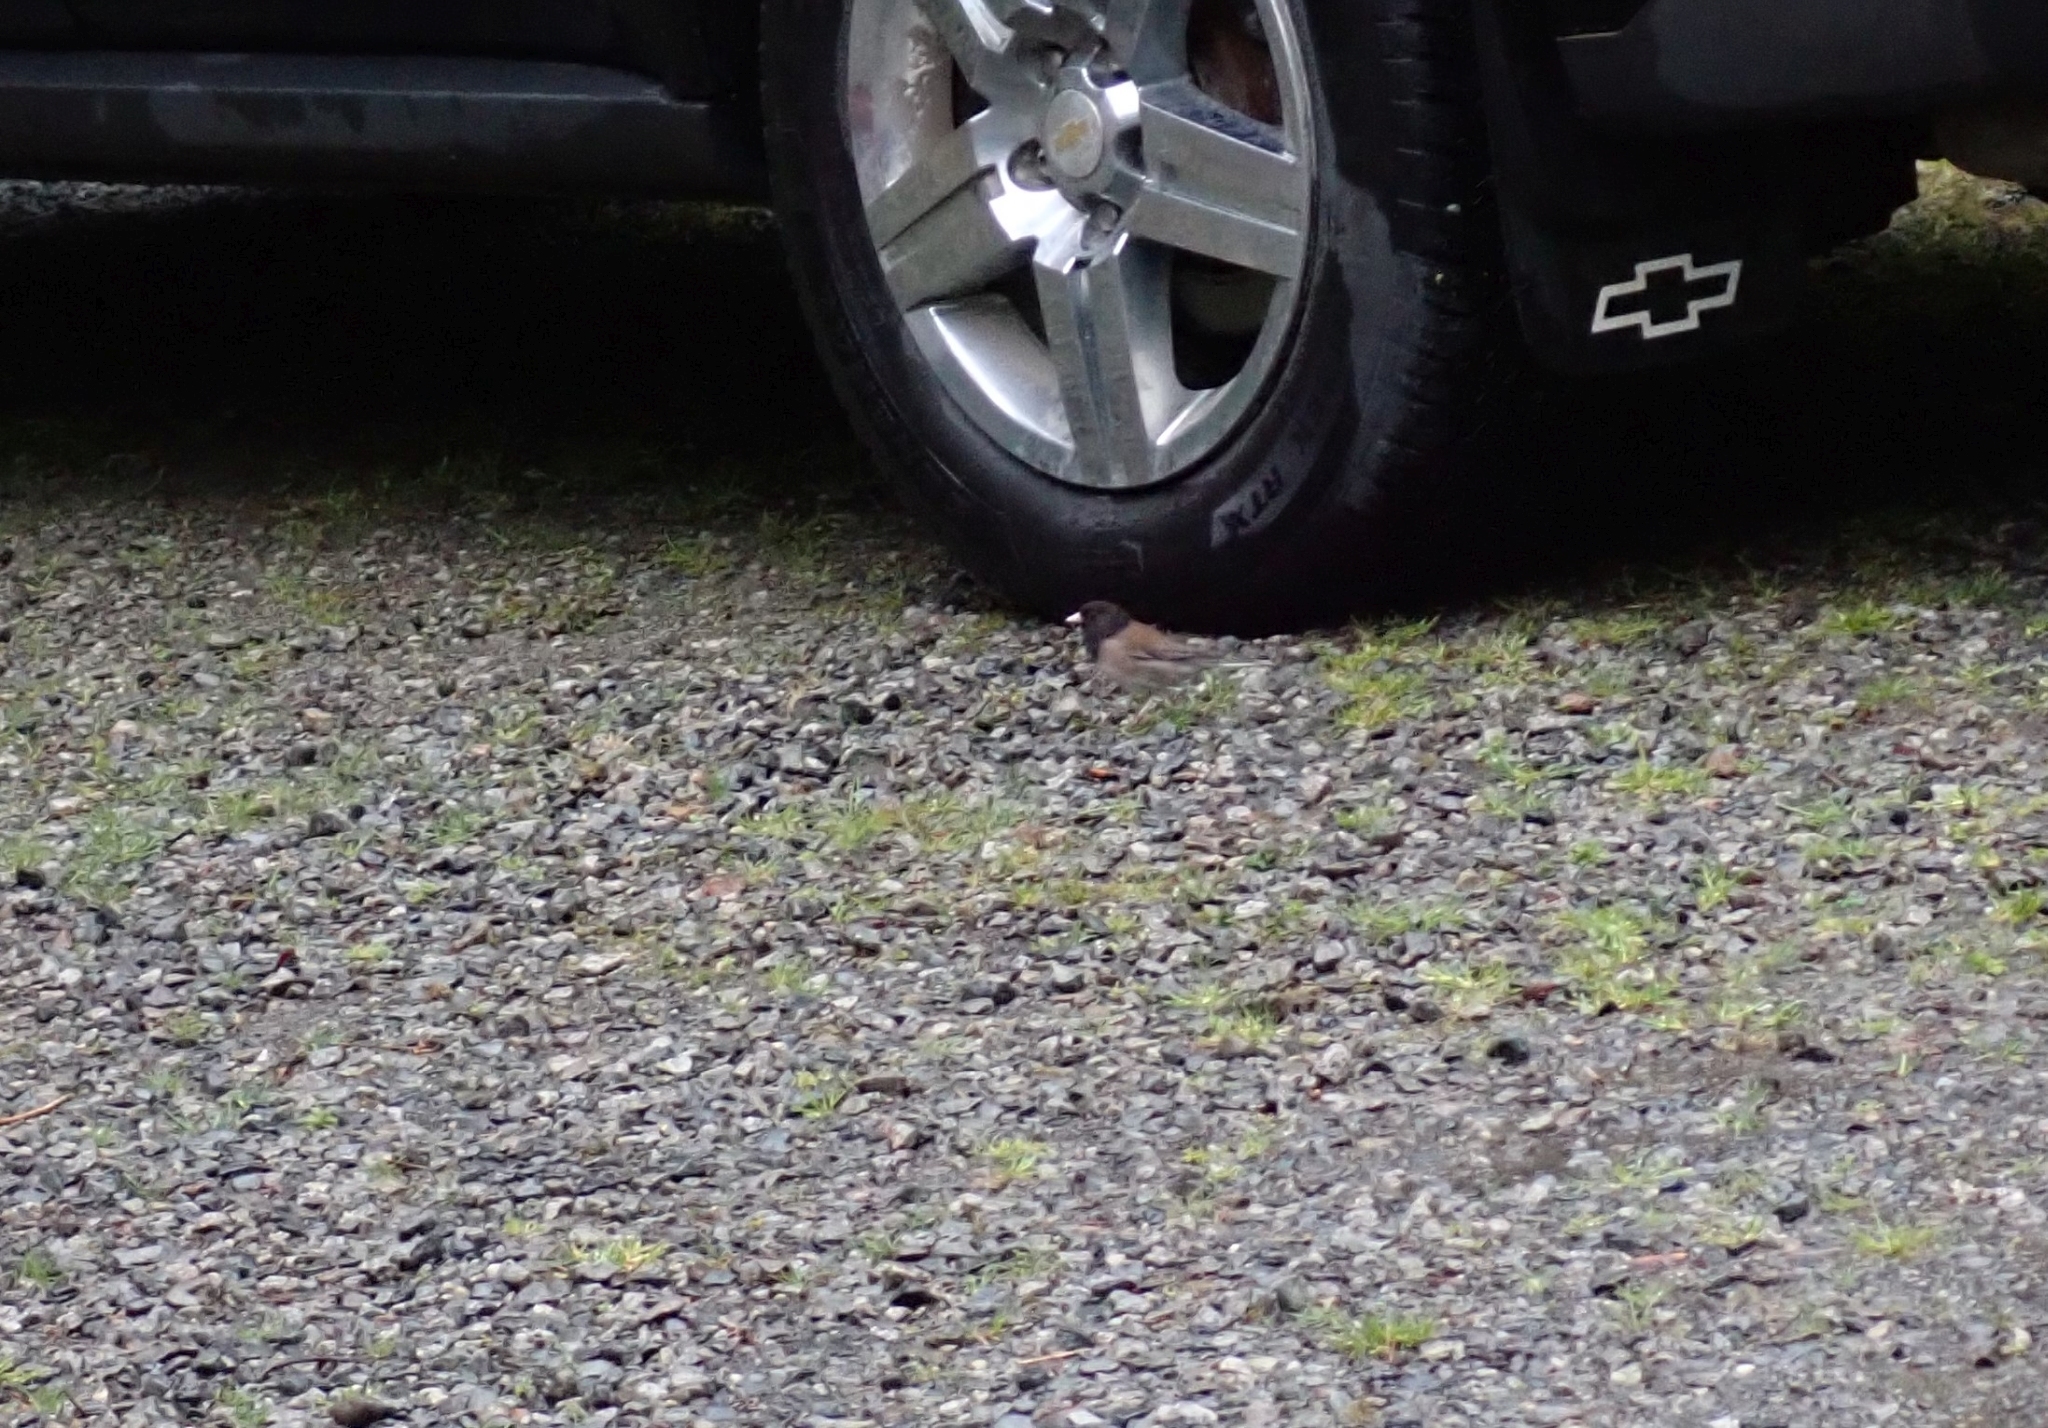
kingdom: Animalia
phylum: Chordata
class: Aves
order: Passeriformes
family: Passerellidae
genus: Junco
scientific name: Junco hyemalis
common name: Dark-eyed junco
